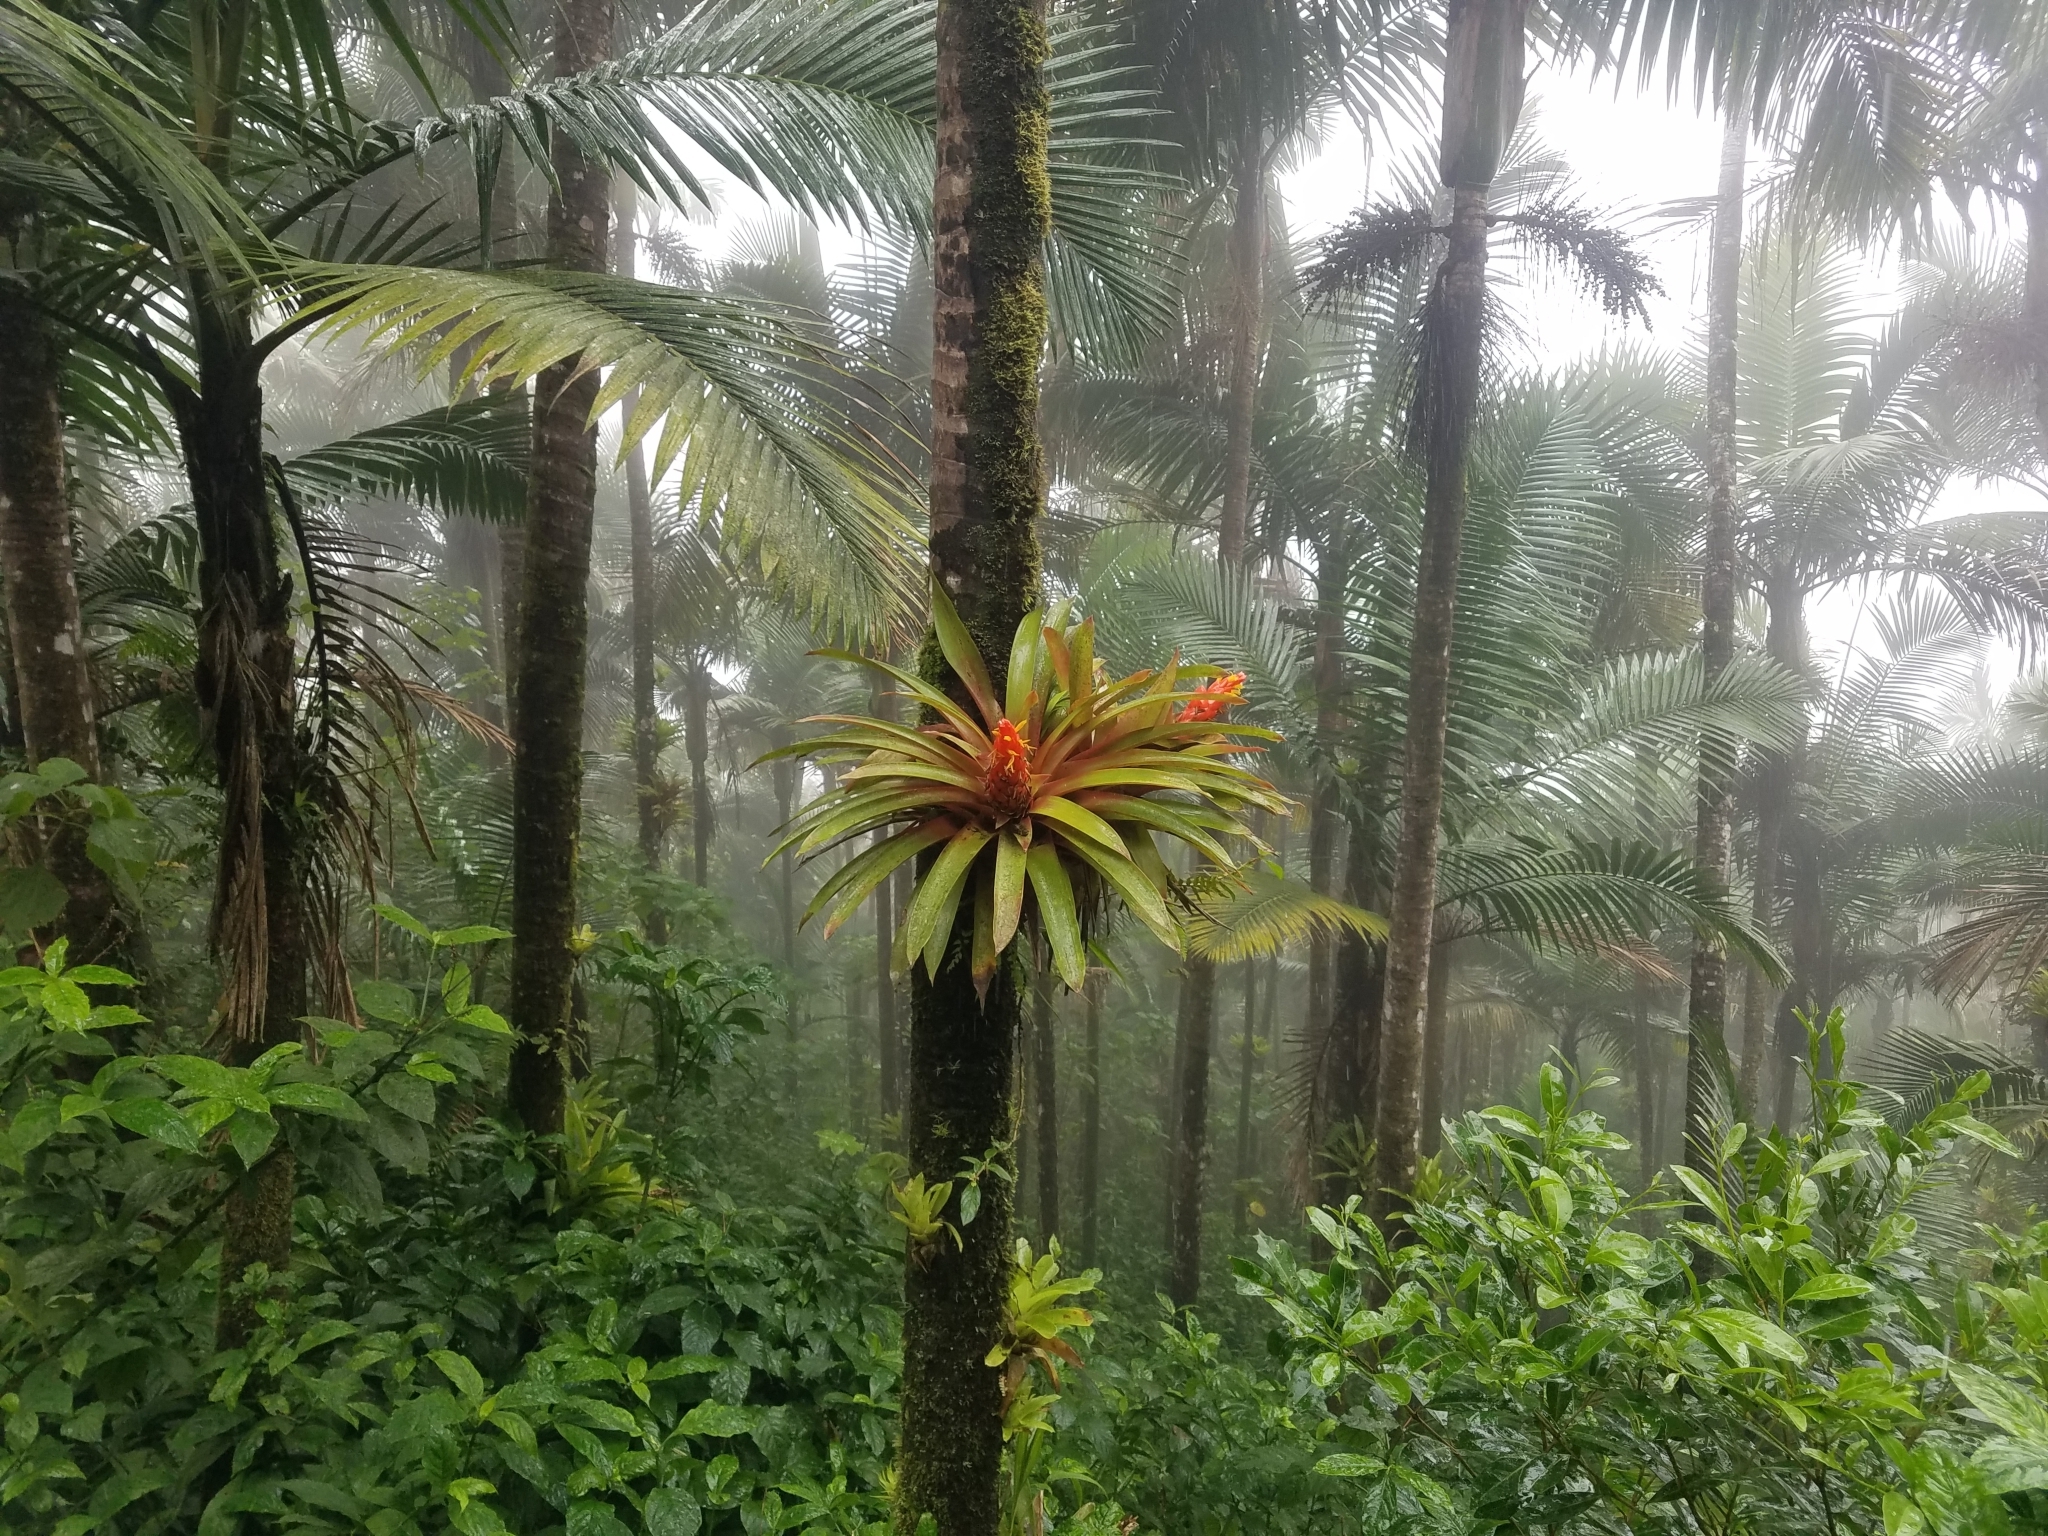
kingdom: Plantae
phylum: Tracheophyta
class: Liliopsida
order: Poales
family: Bromeliaceae
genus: Guzmania
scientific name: Guzmania berteroniana
